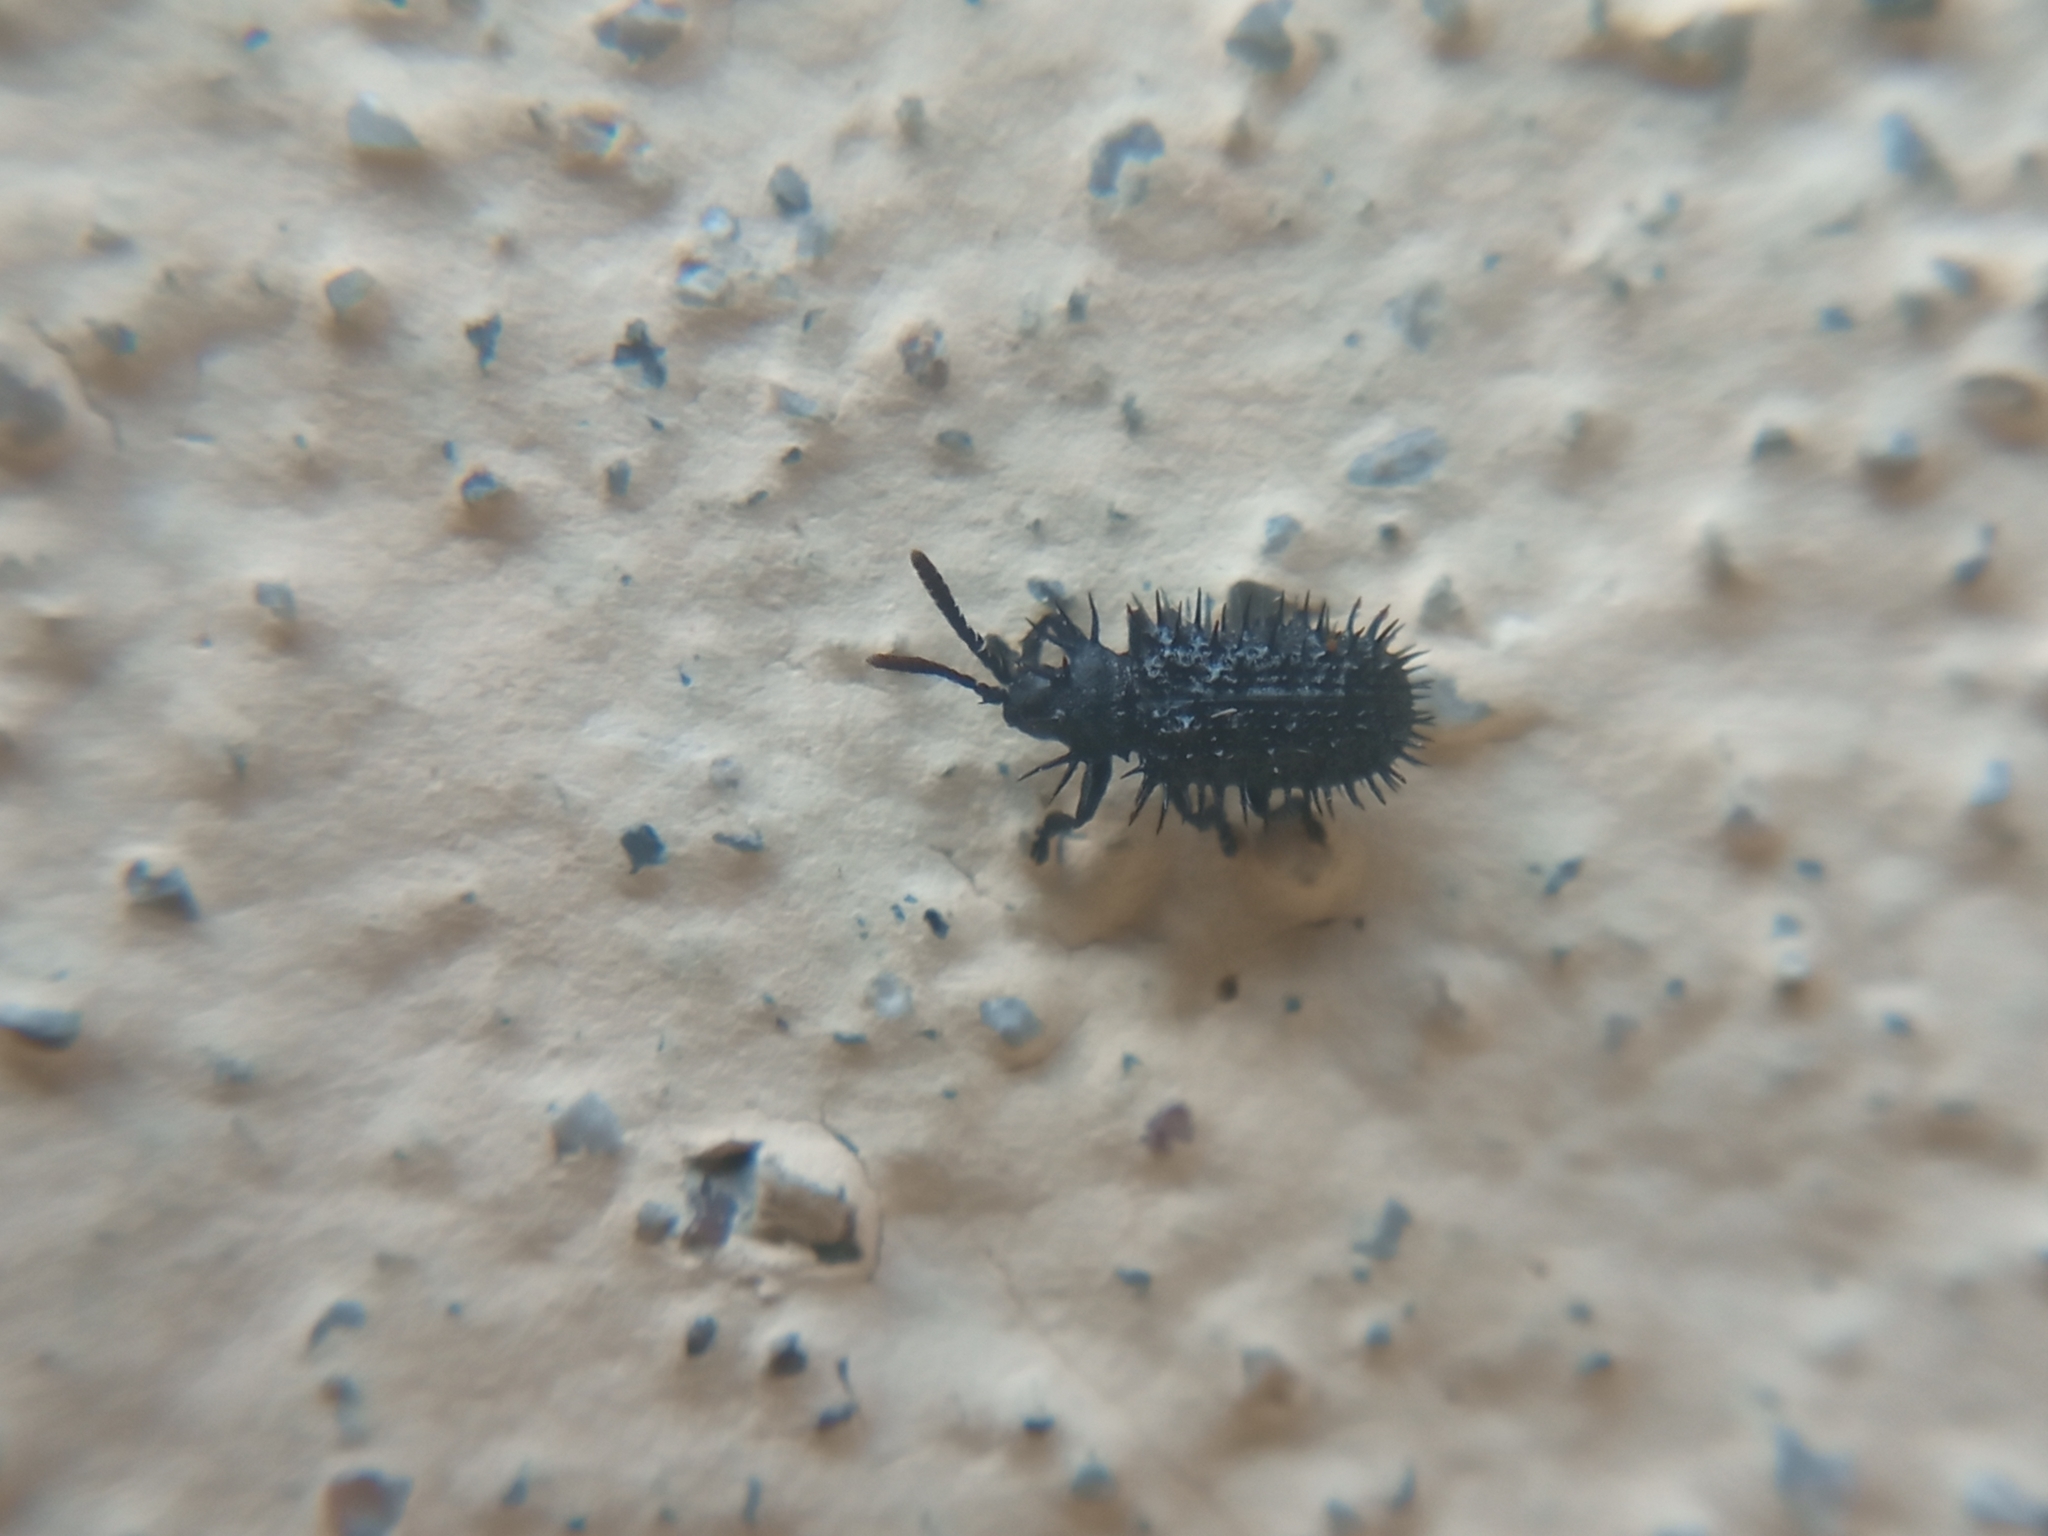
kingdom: Animalia
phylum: Arthropoda
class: Insecta
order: Coleoptera
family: Chrysomelidae
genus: Hispa
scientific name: Hispa atra
